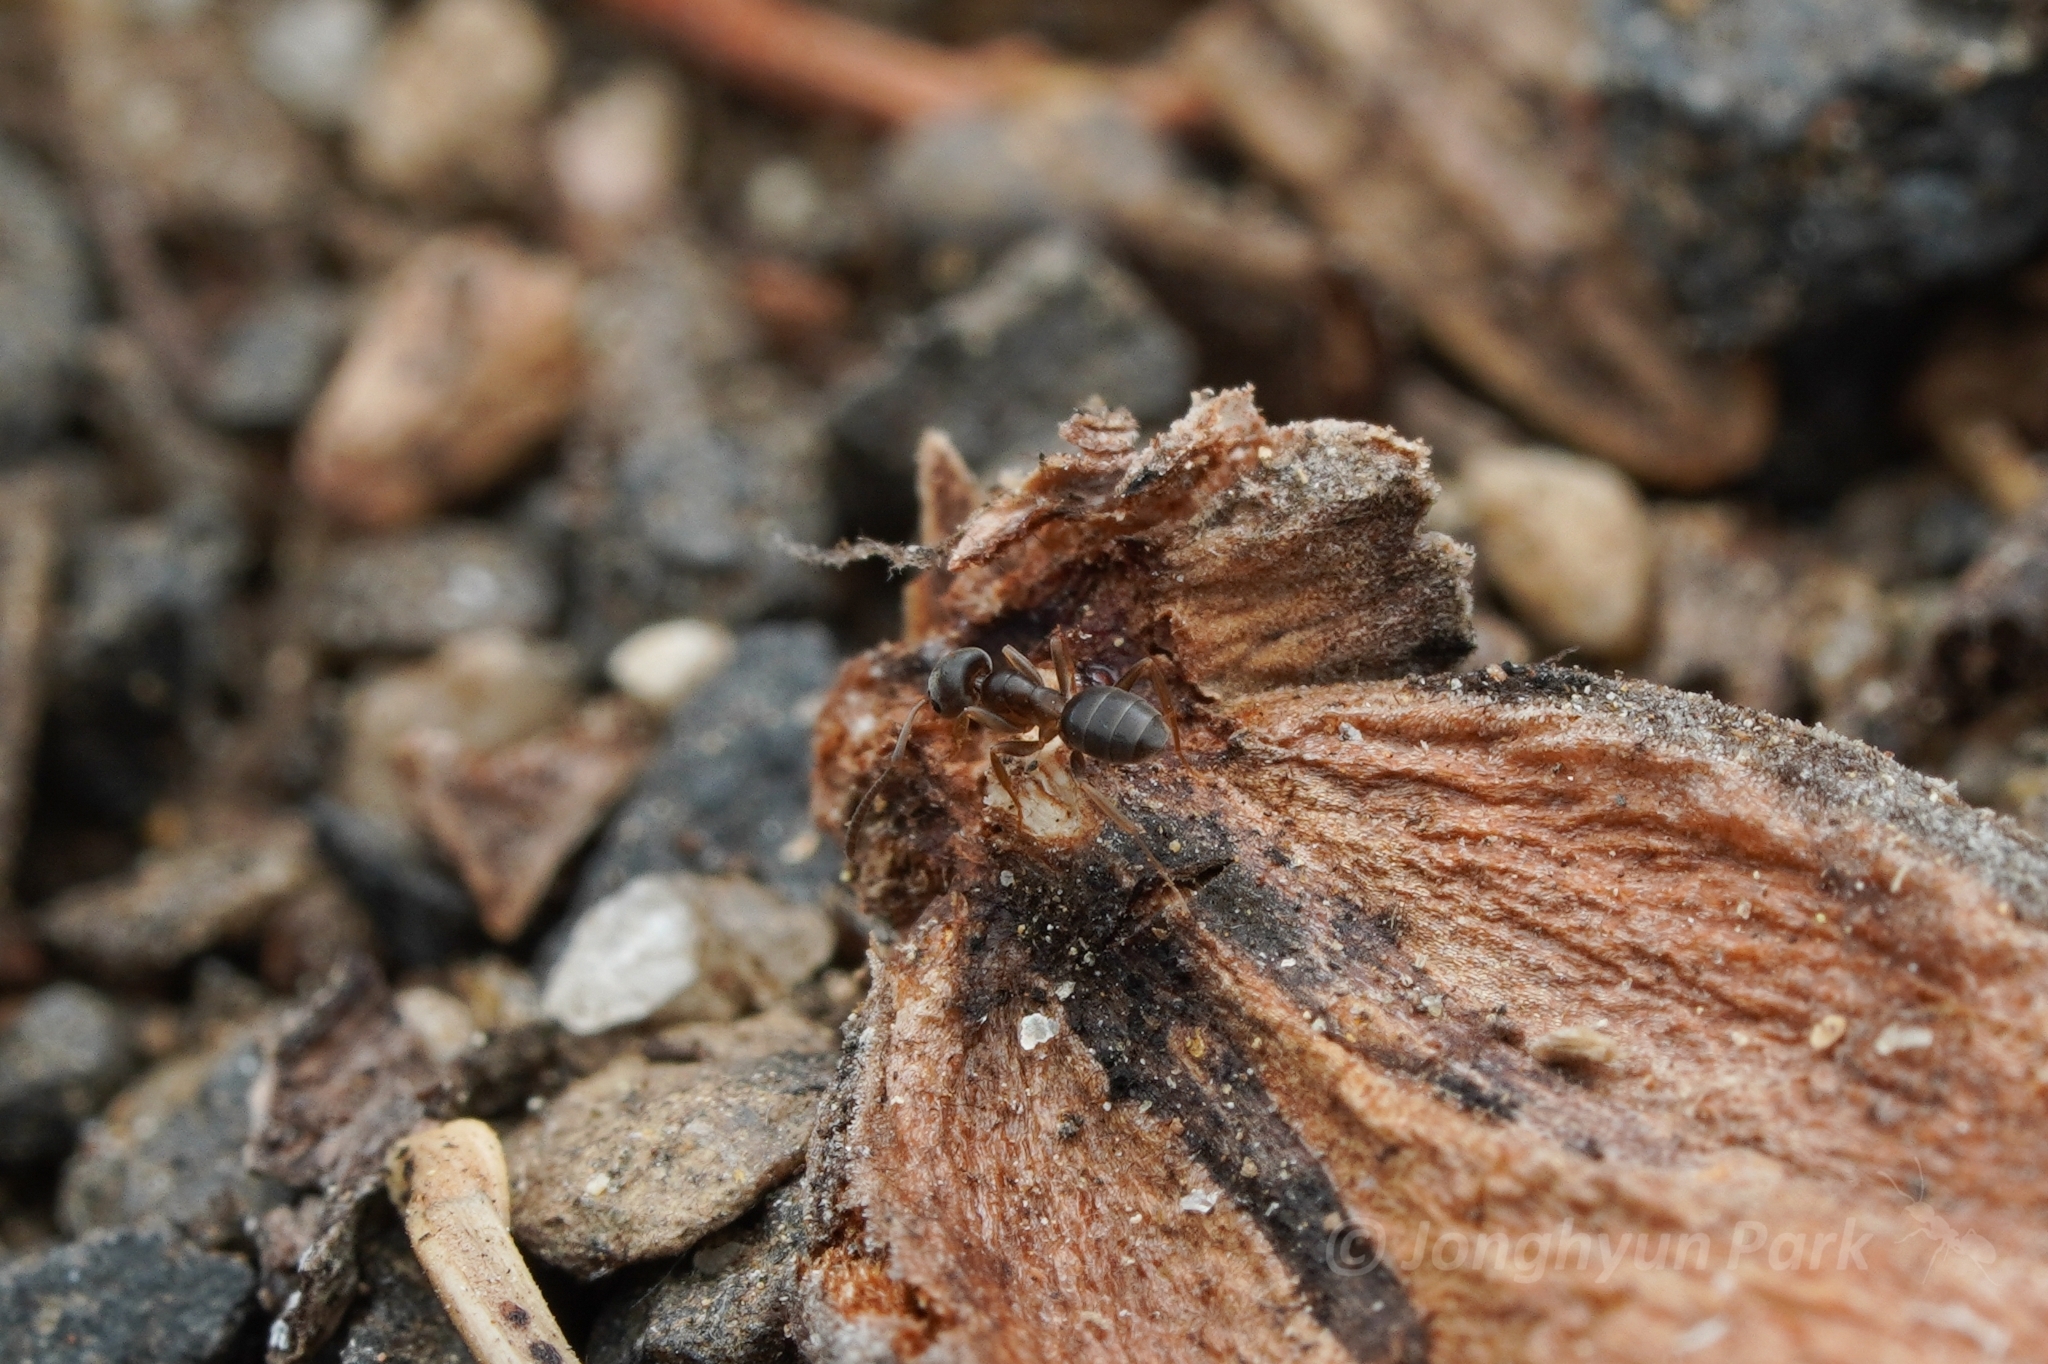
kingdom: Animalia
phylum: Arthropoda
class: Insecta
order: Hymenoptera
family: Formicidae
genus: Tapinoma
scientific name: Tapinoma sessile
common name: Odorous house ant
